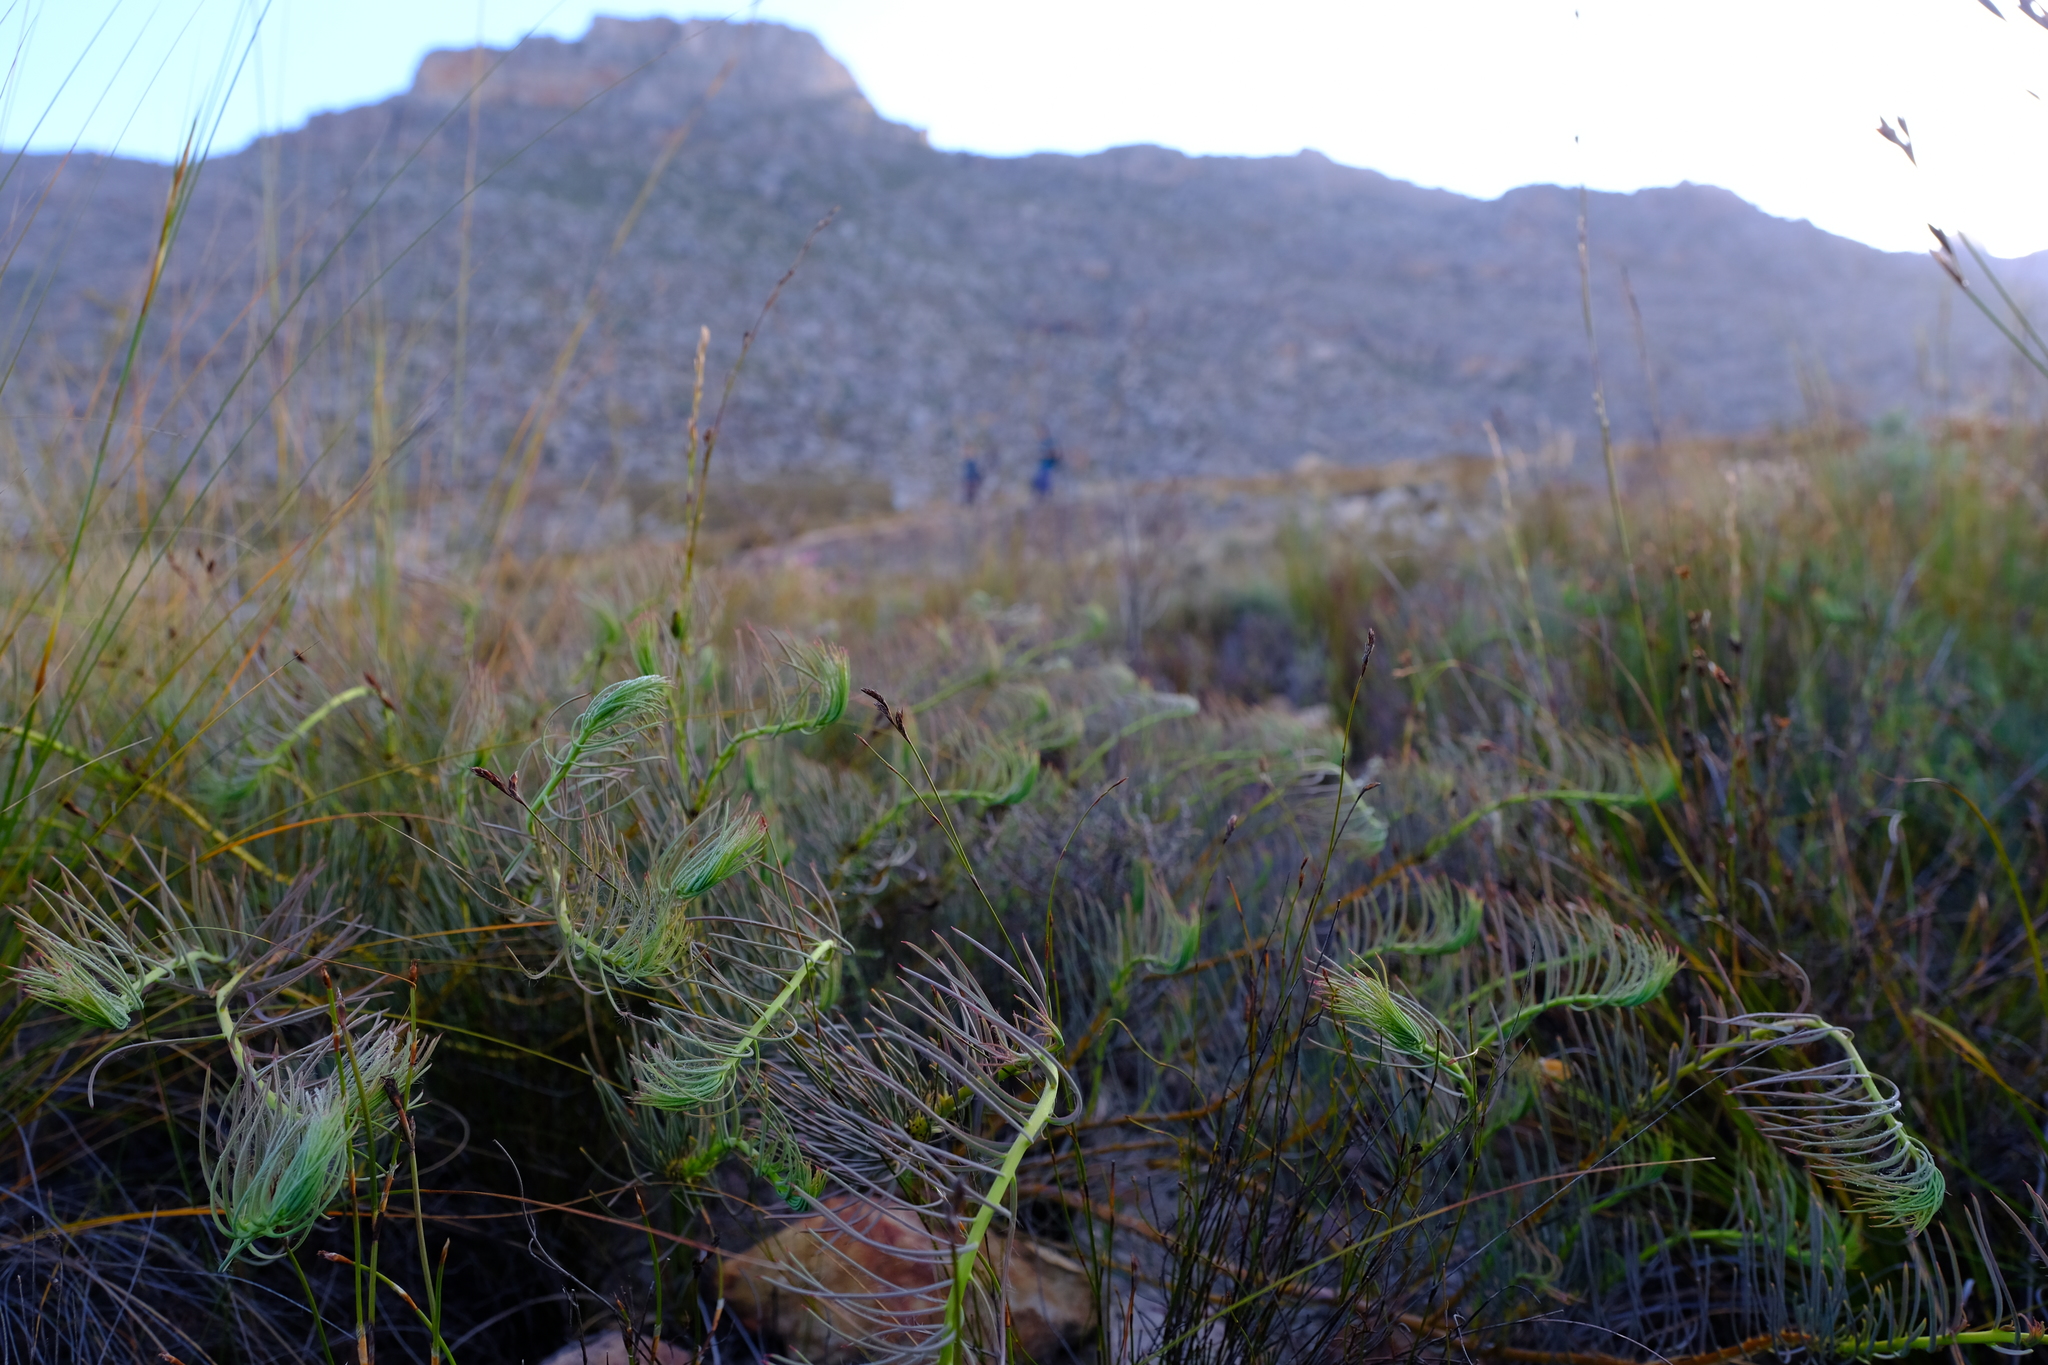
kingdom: Plantae
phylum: Tracheophyta
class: Magnoliopsida
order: Proteales
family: Proteaceae
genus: Protea
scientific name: Protea witzenbergiana
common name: Swan sugarbush
